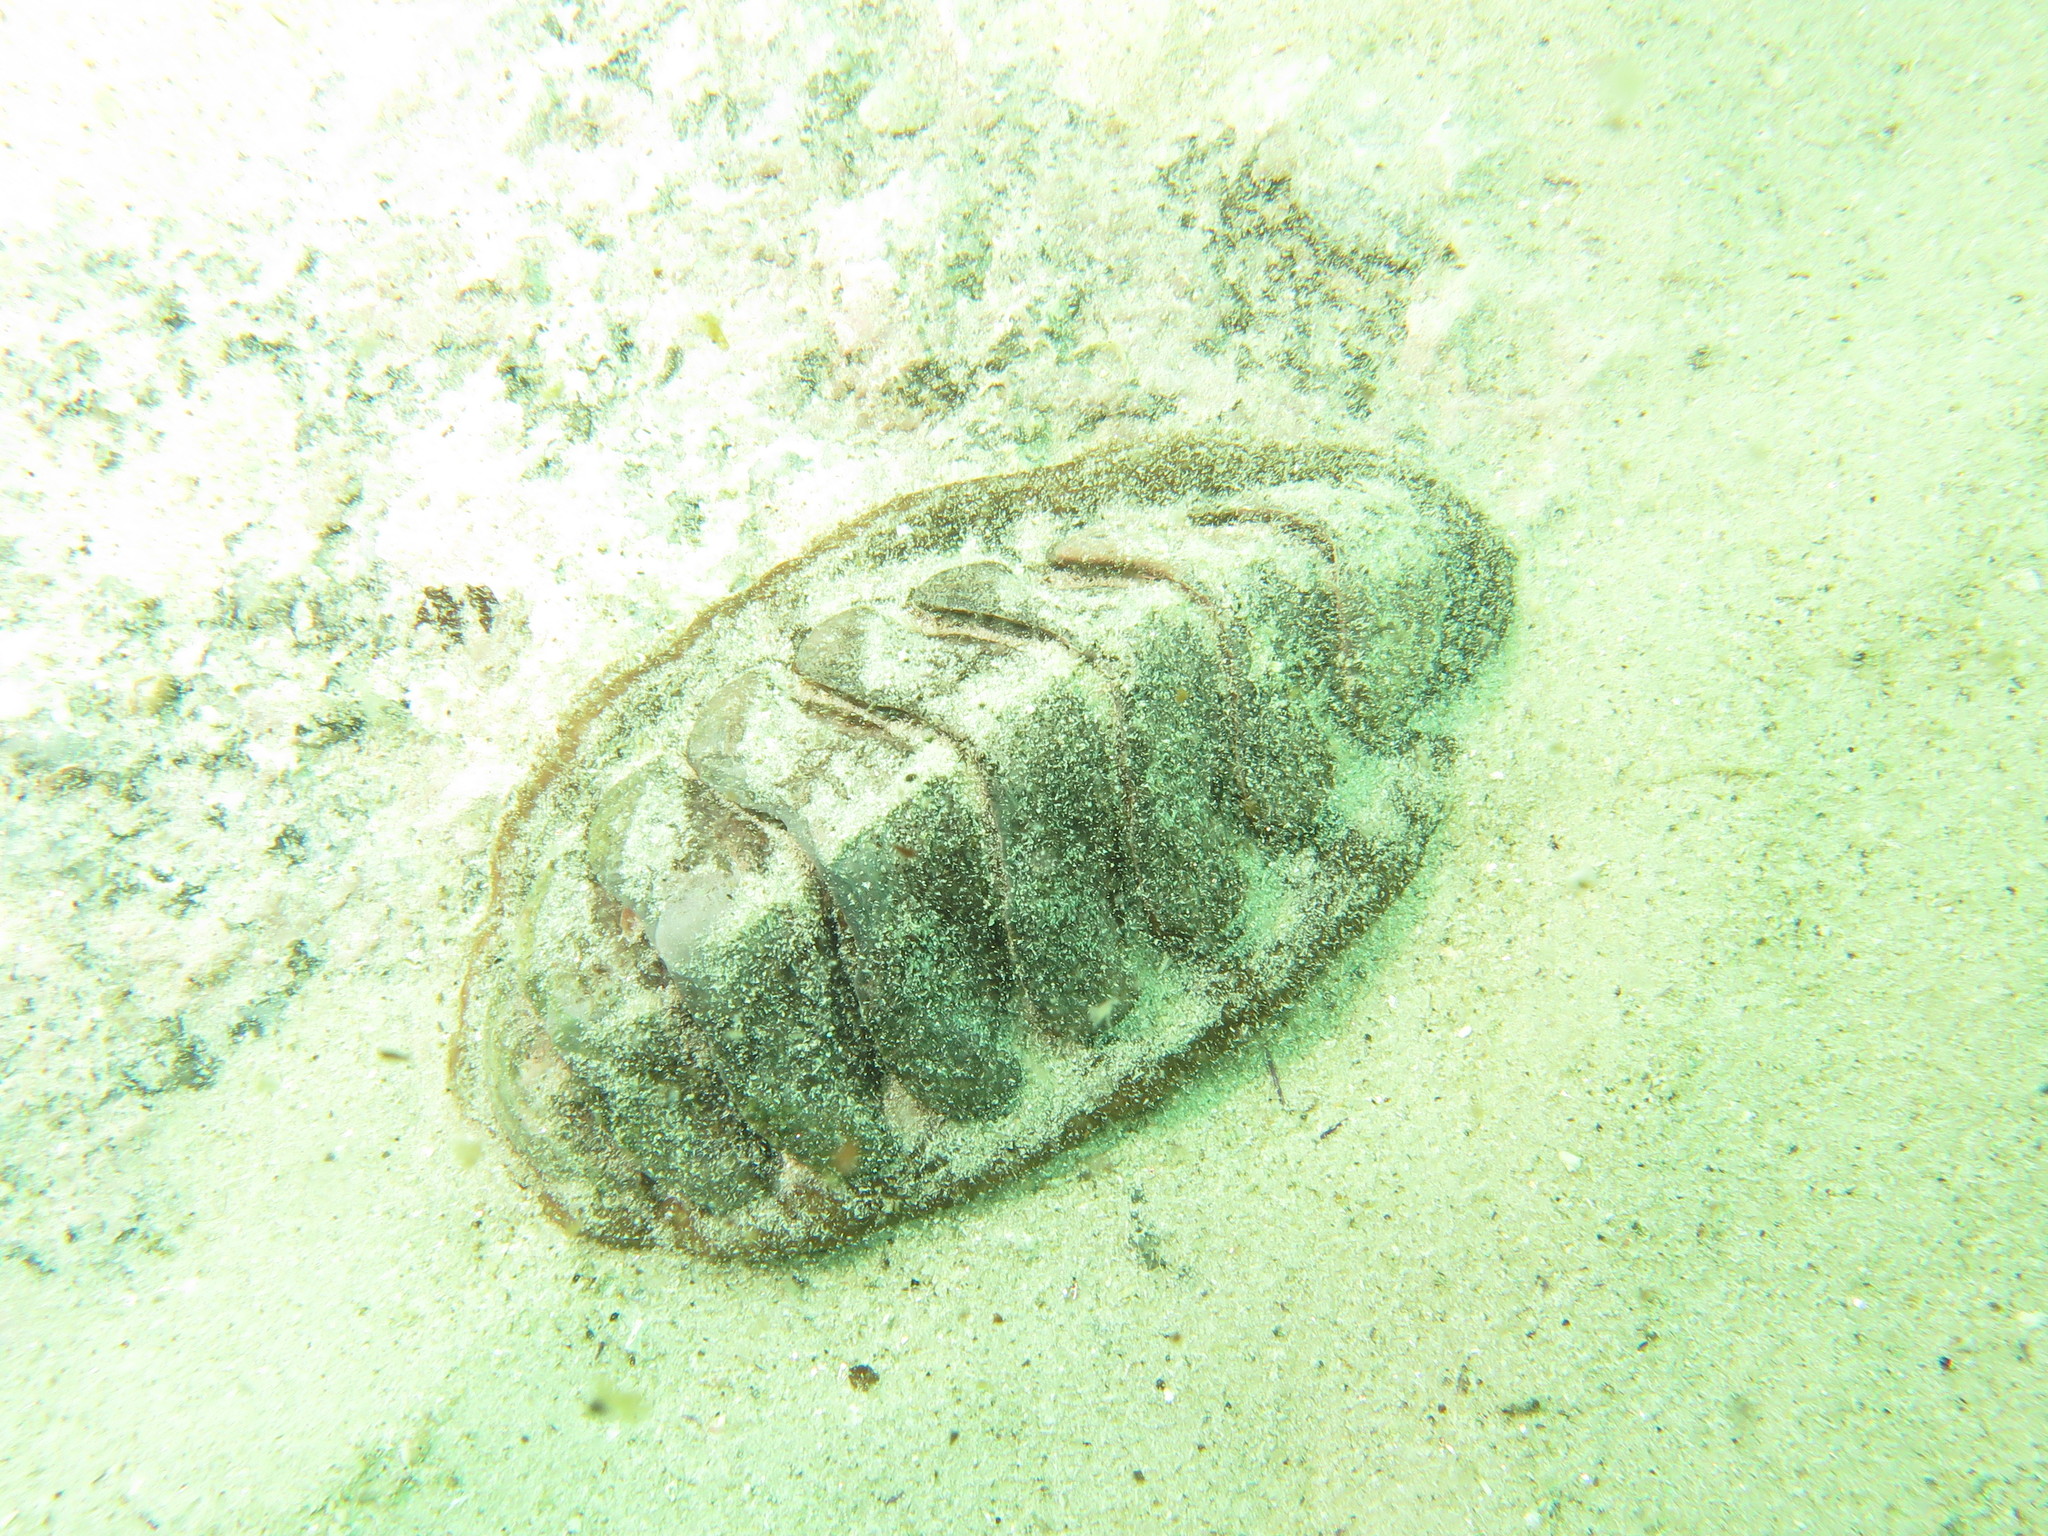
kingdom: Animalia
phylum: Mollusca
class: Polyplacophora
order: Chitonida
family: Chaetopleuridae
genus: Dinoplax
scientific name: Dinoplax gigas
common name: Armadillo
